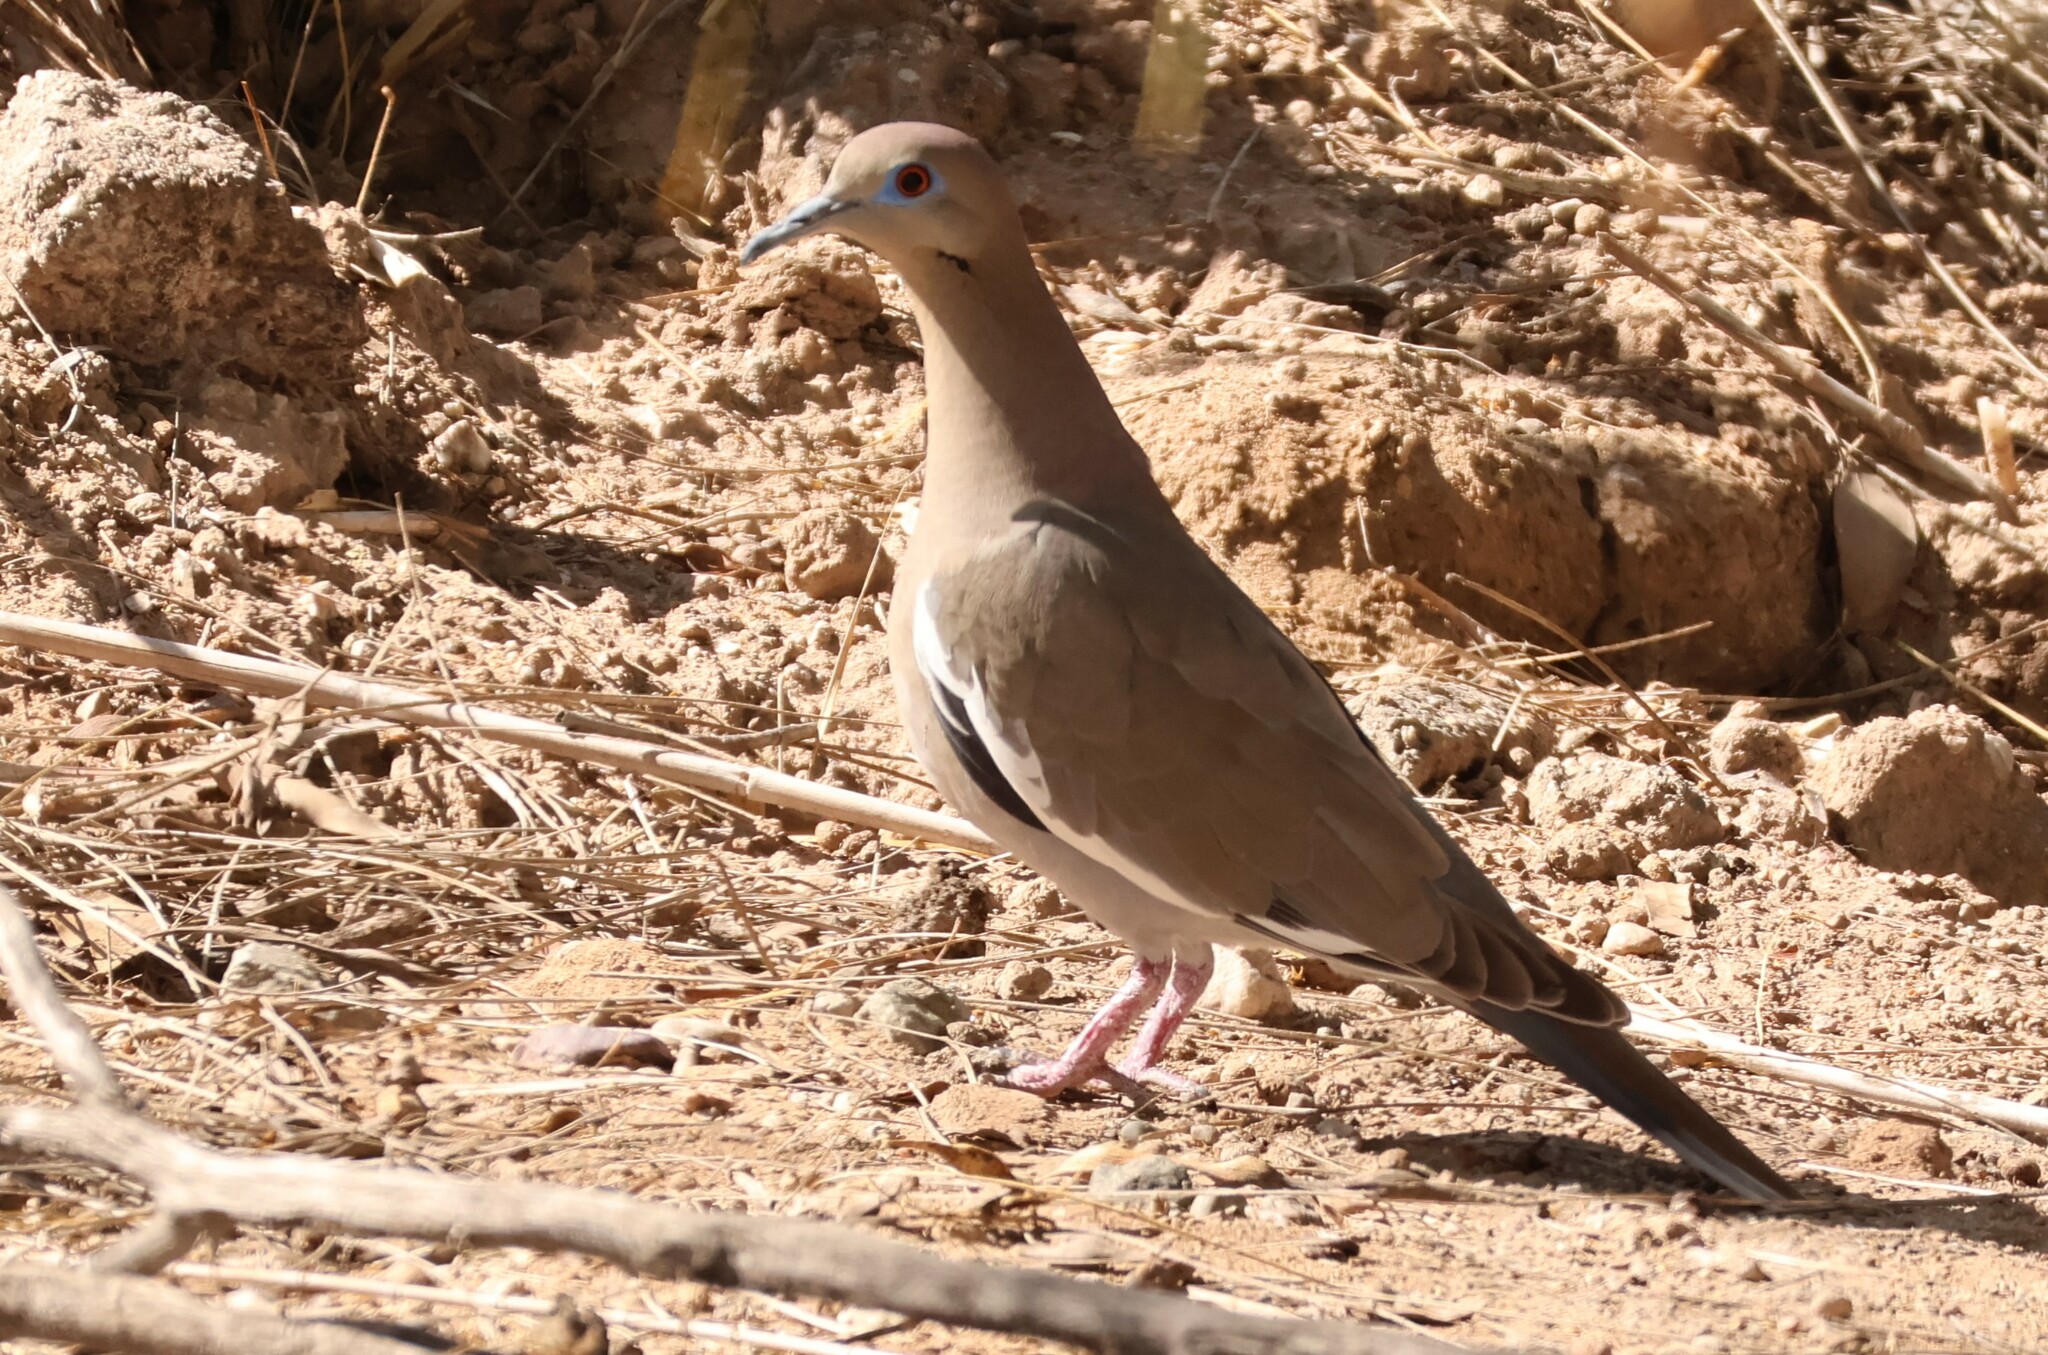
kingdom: Animalia
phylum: Chordata
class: Aves
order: Columbiformes
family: Columbidae
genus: Zenaida
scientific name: Zenaida asiatica
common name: White-winged dove
